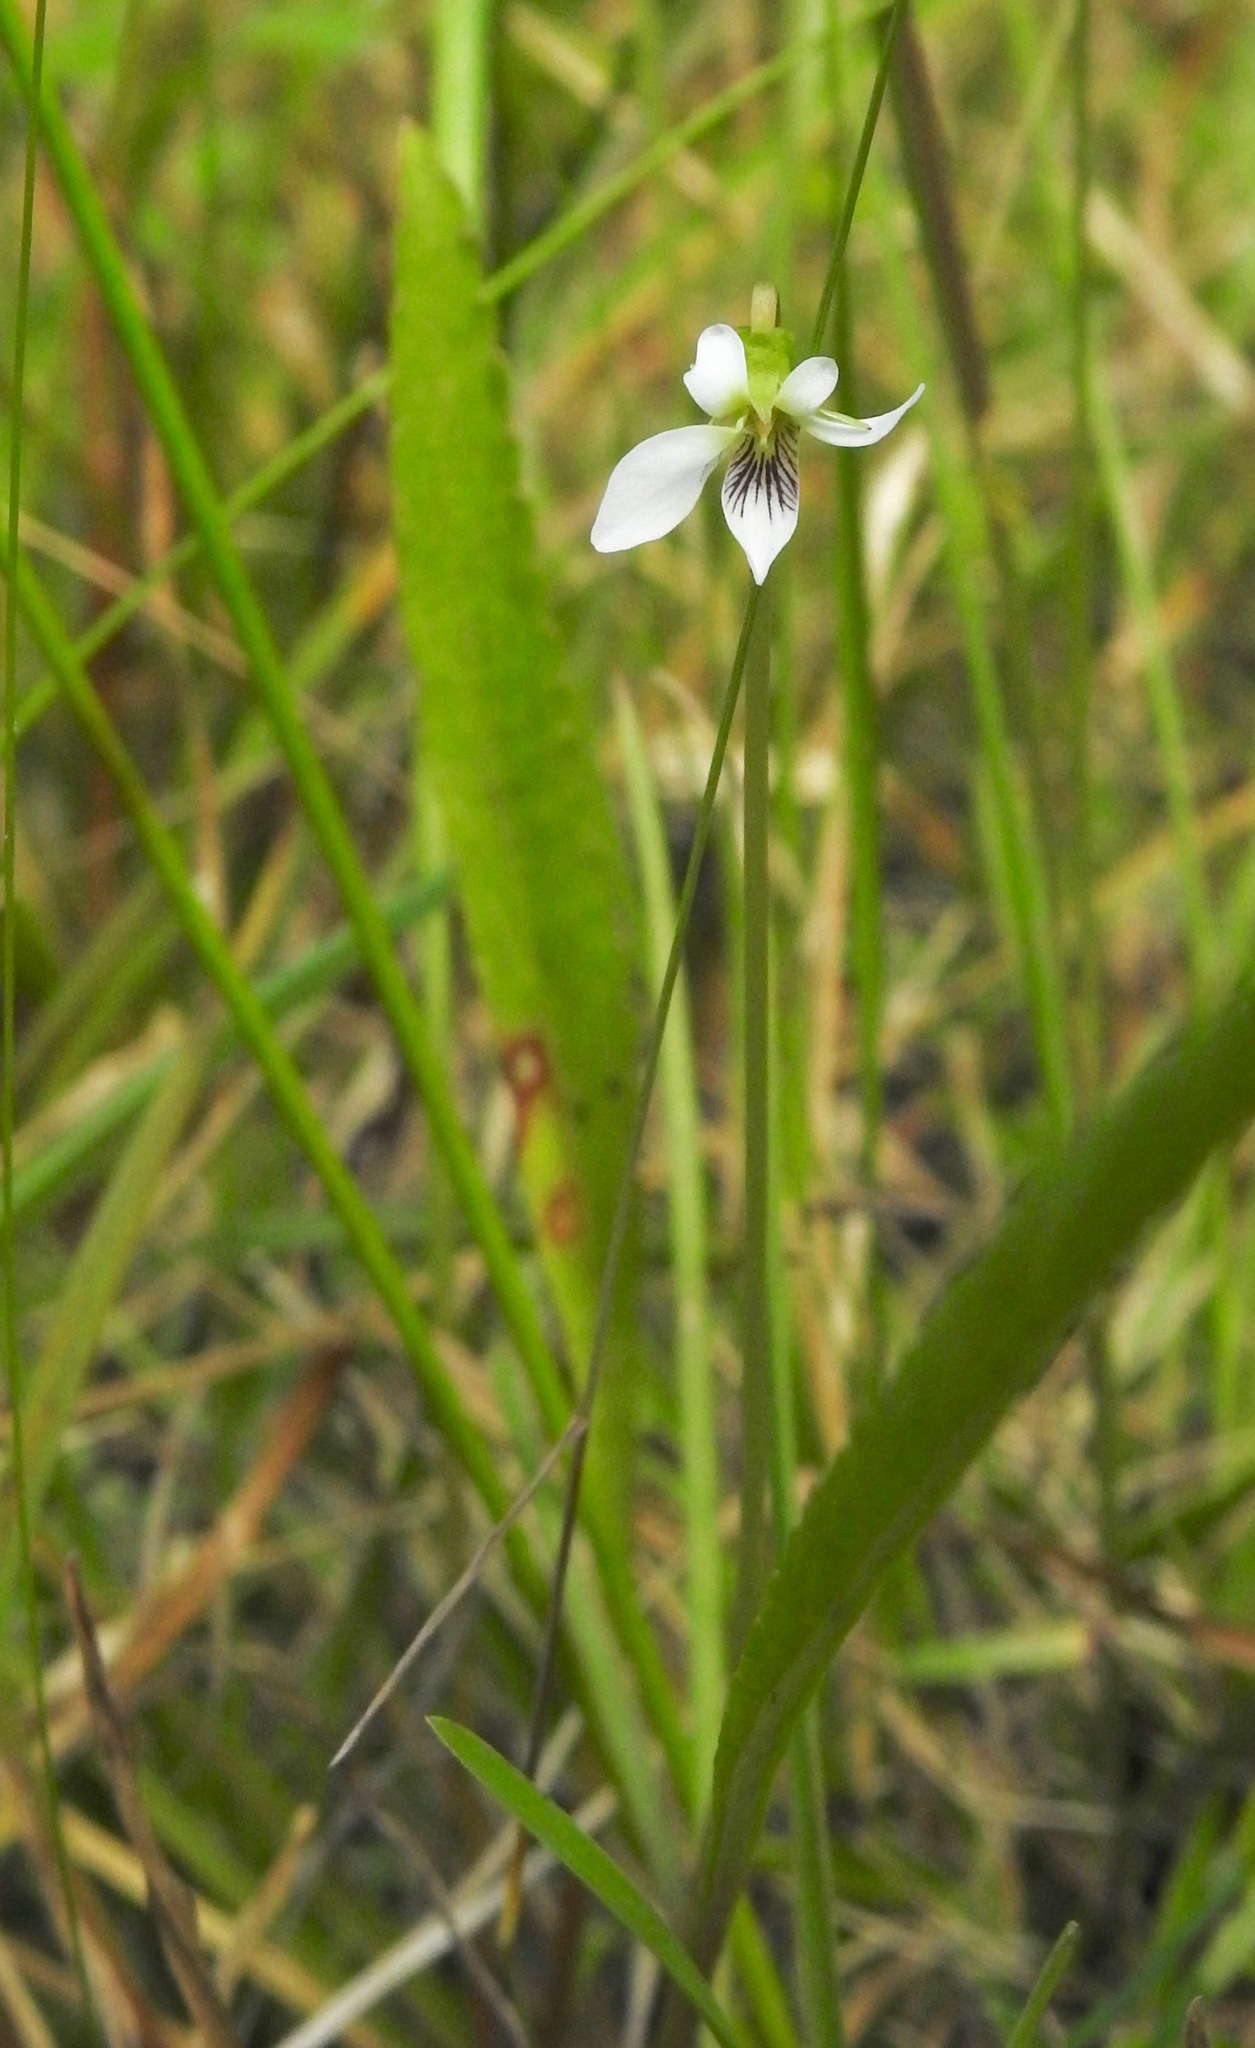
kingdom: Plantae
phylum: Tracheophyta
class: Magnoliopsida
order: Malpighiales
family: Violaceae
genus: Viola
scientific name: Viola vittata
